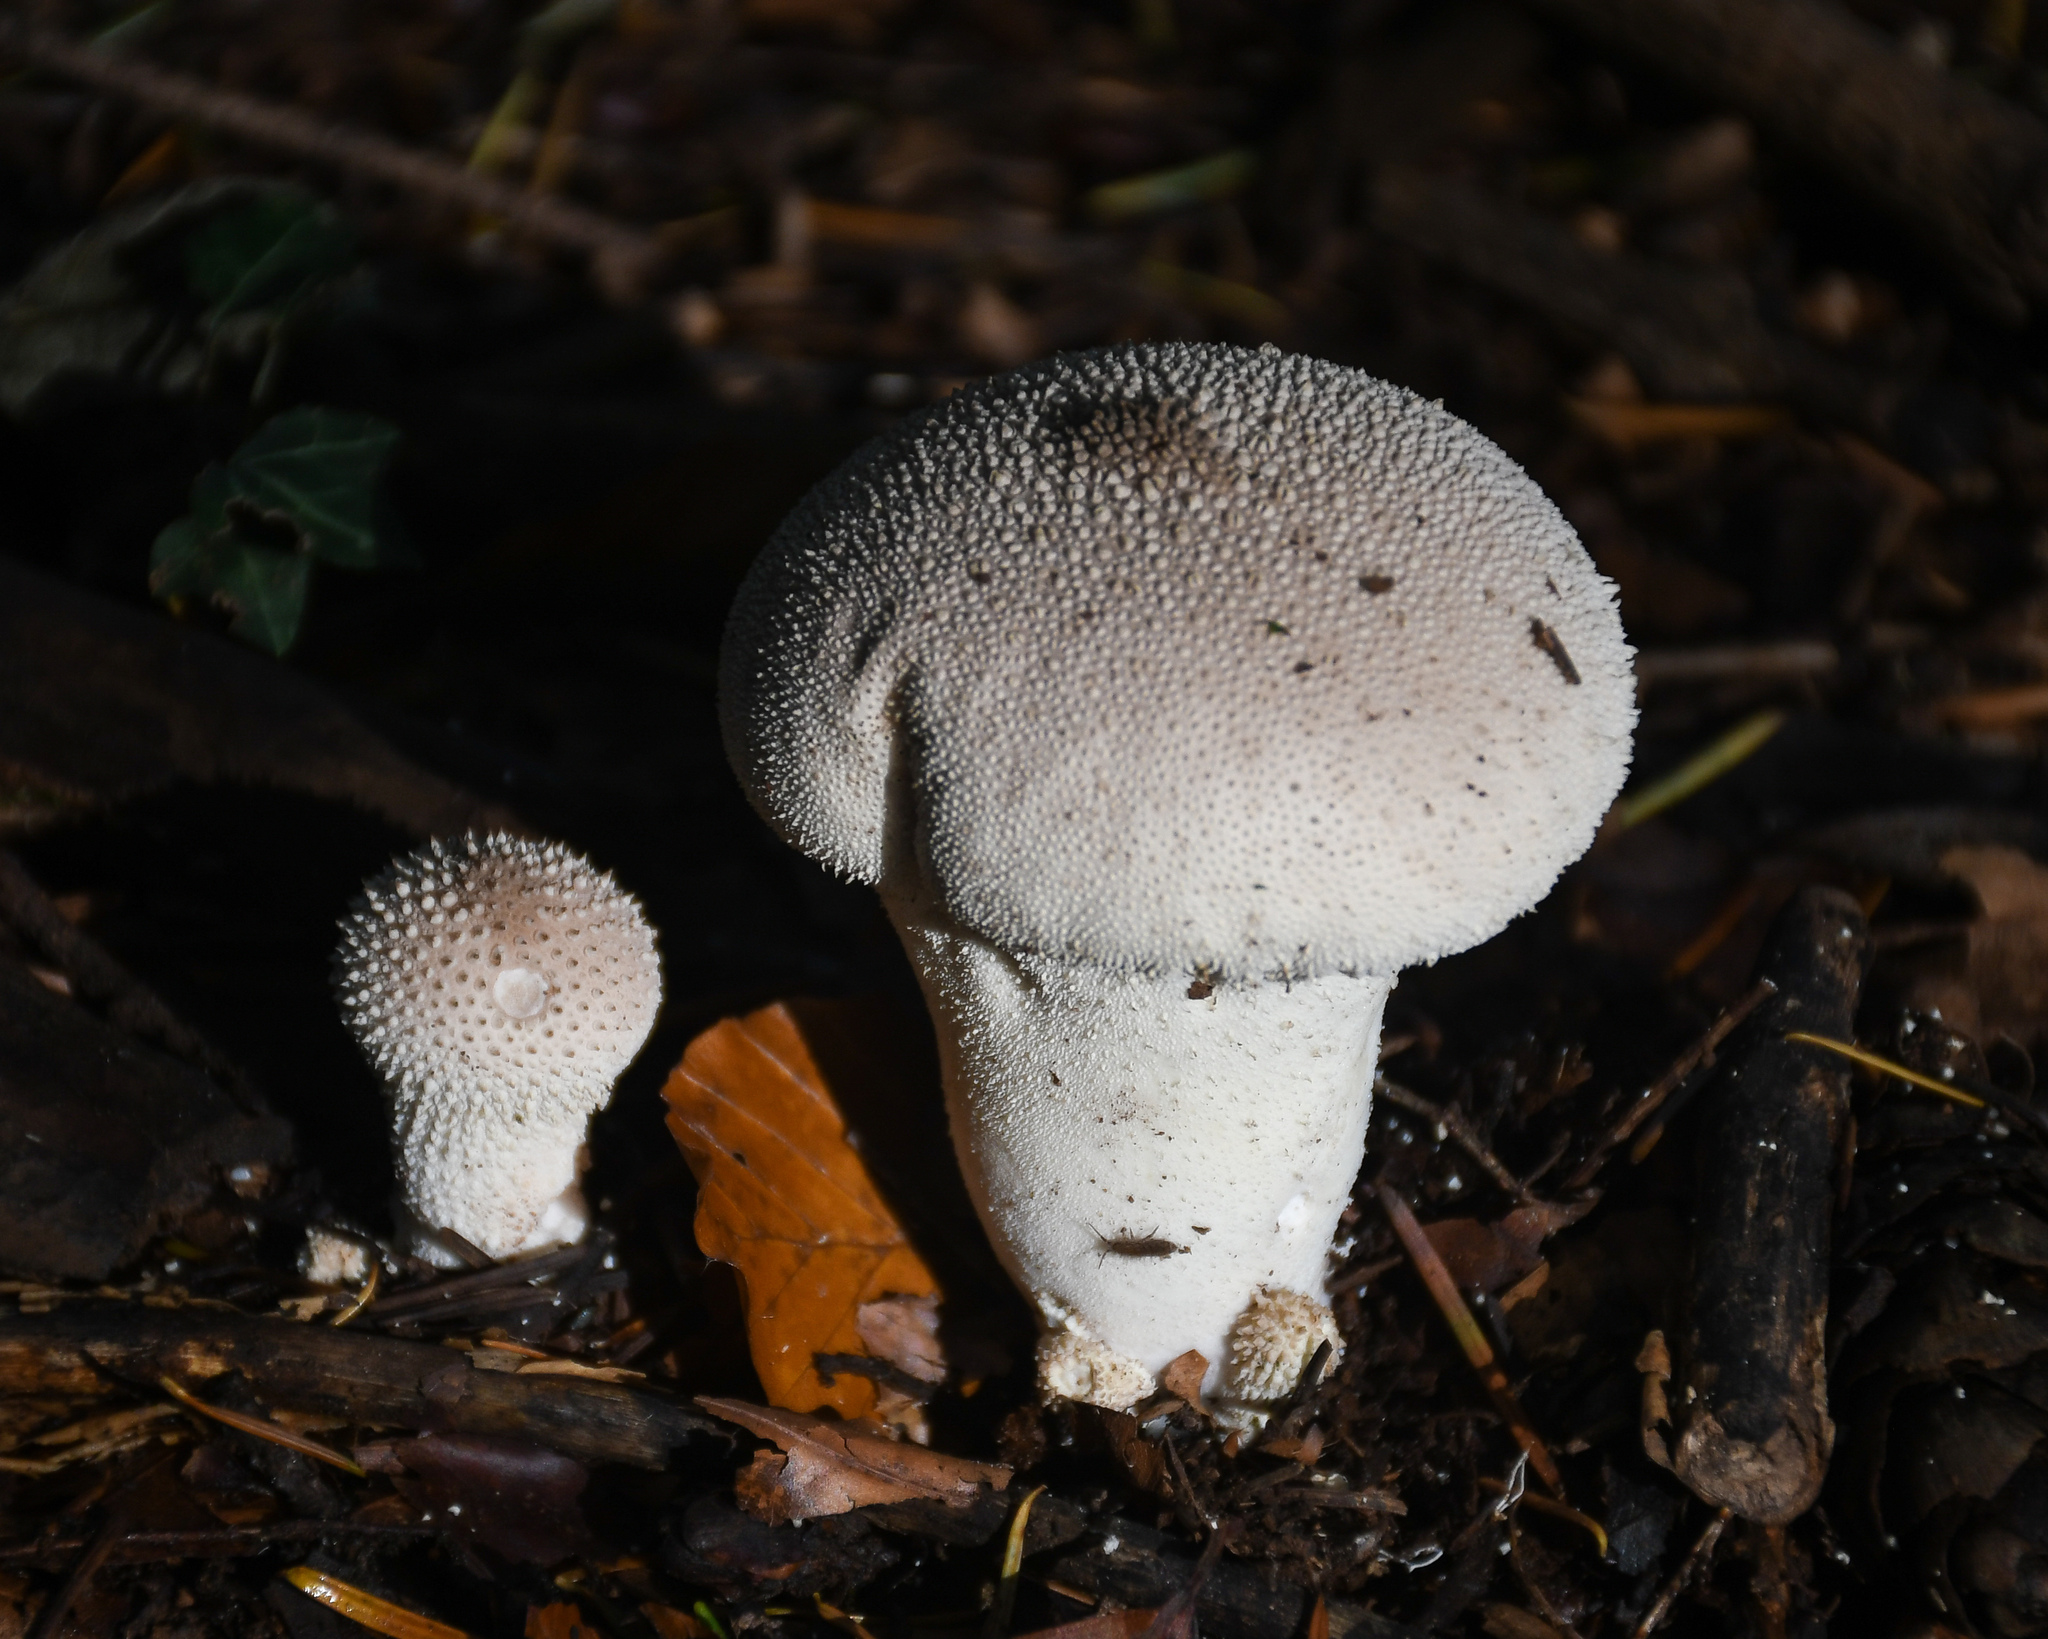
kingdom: Fungi
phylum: Basidiomycota
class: Agaricomycetes
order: Agaricales
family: Lycoperdaceae
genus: Lycoperdon
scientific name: Lycoperdon perlatum
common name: Common puffball
